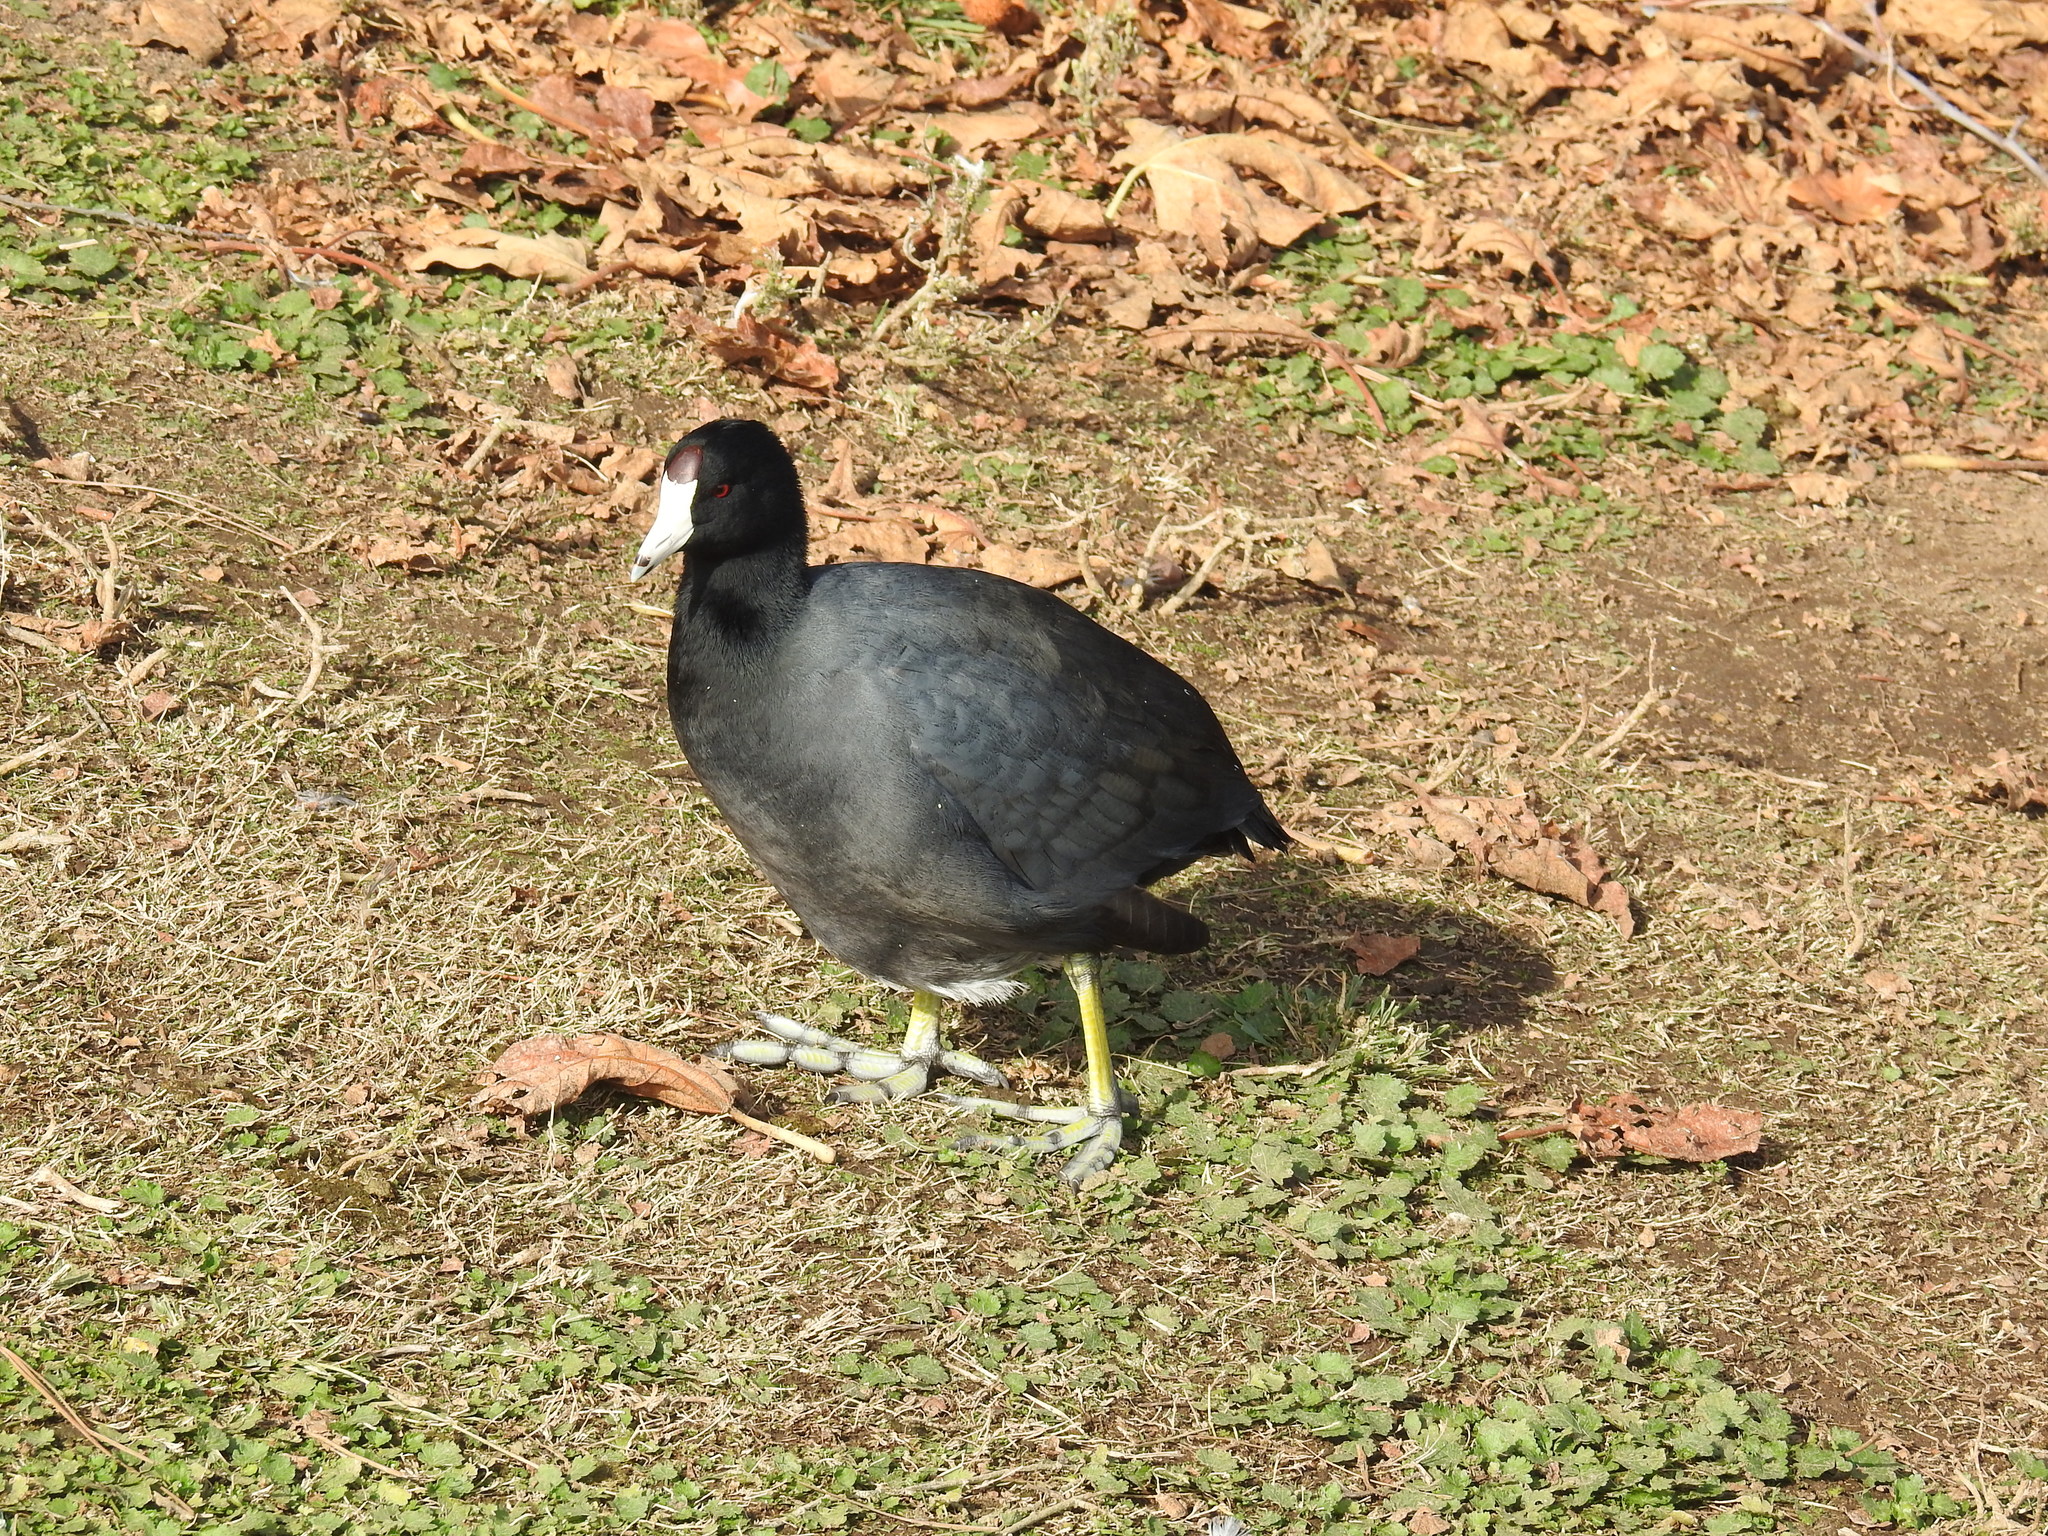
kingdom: Animalia
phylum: Chordata
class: Aves
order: Gruiformes
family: Rallidae
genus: Fulica
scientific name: Fulica americana
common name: American coot
